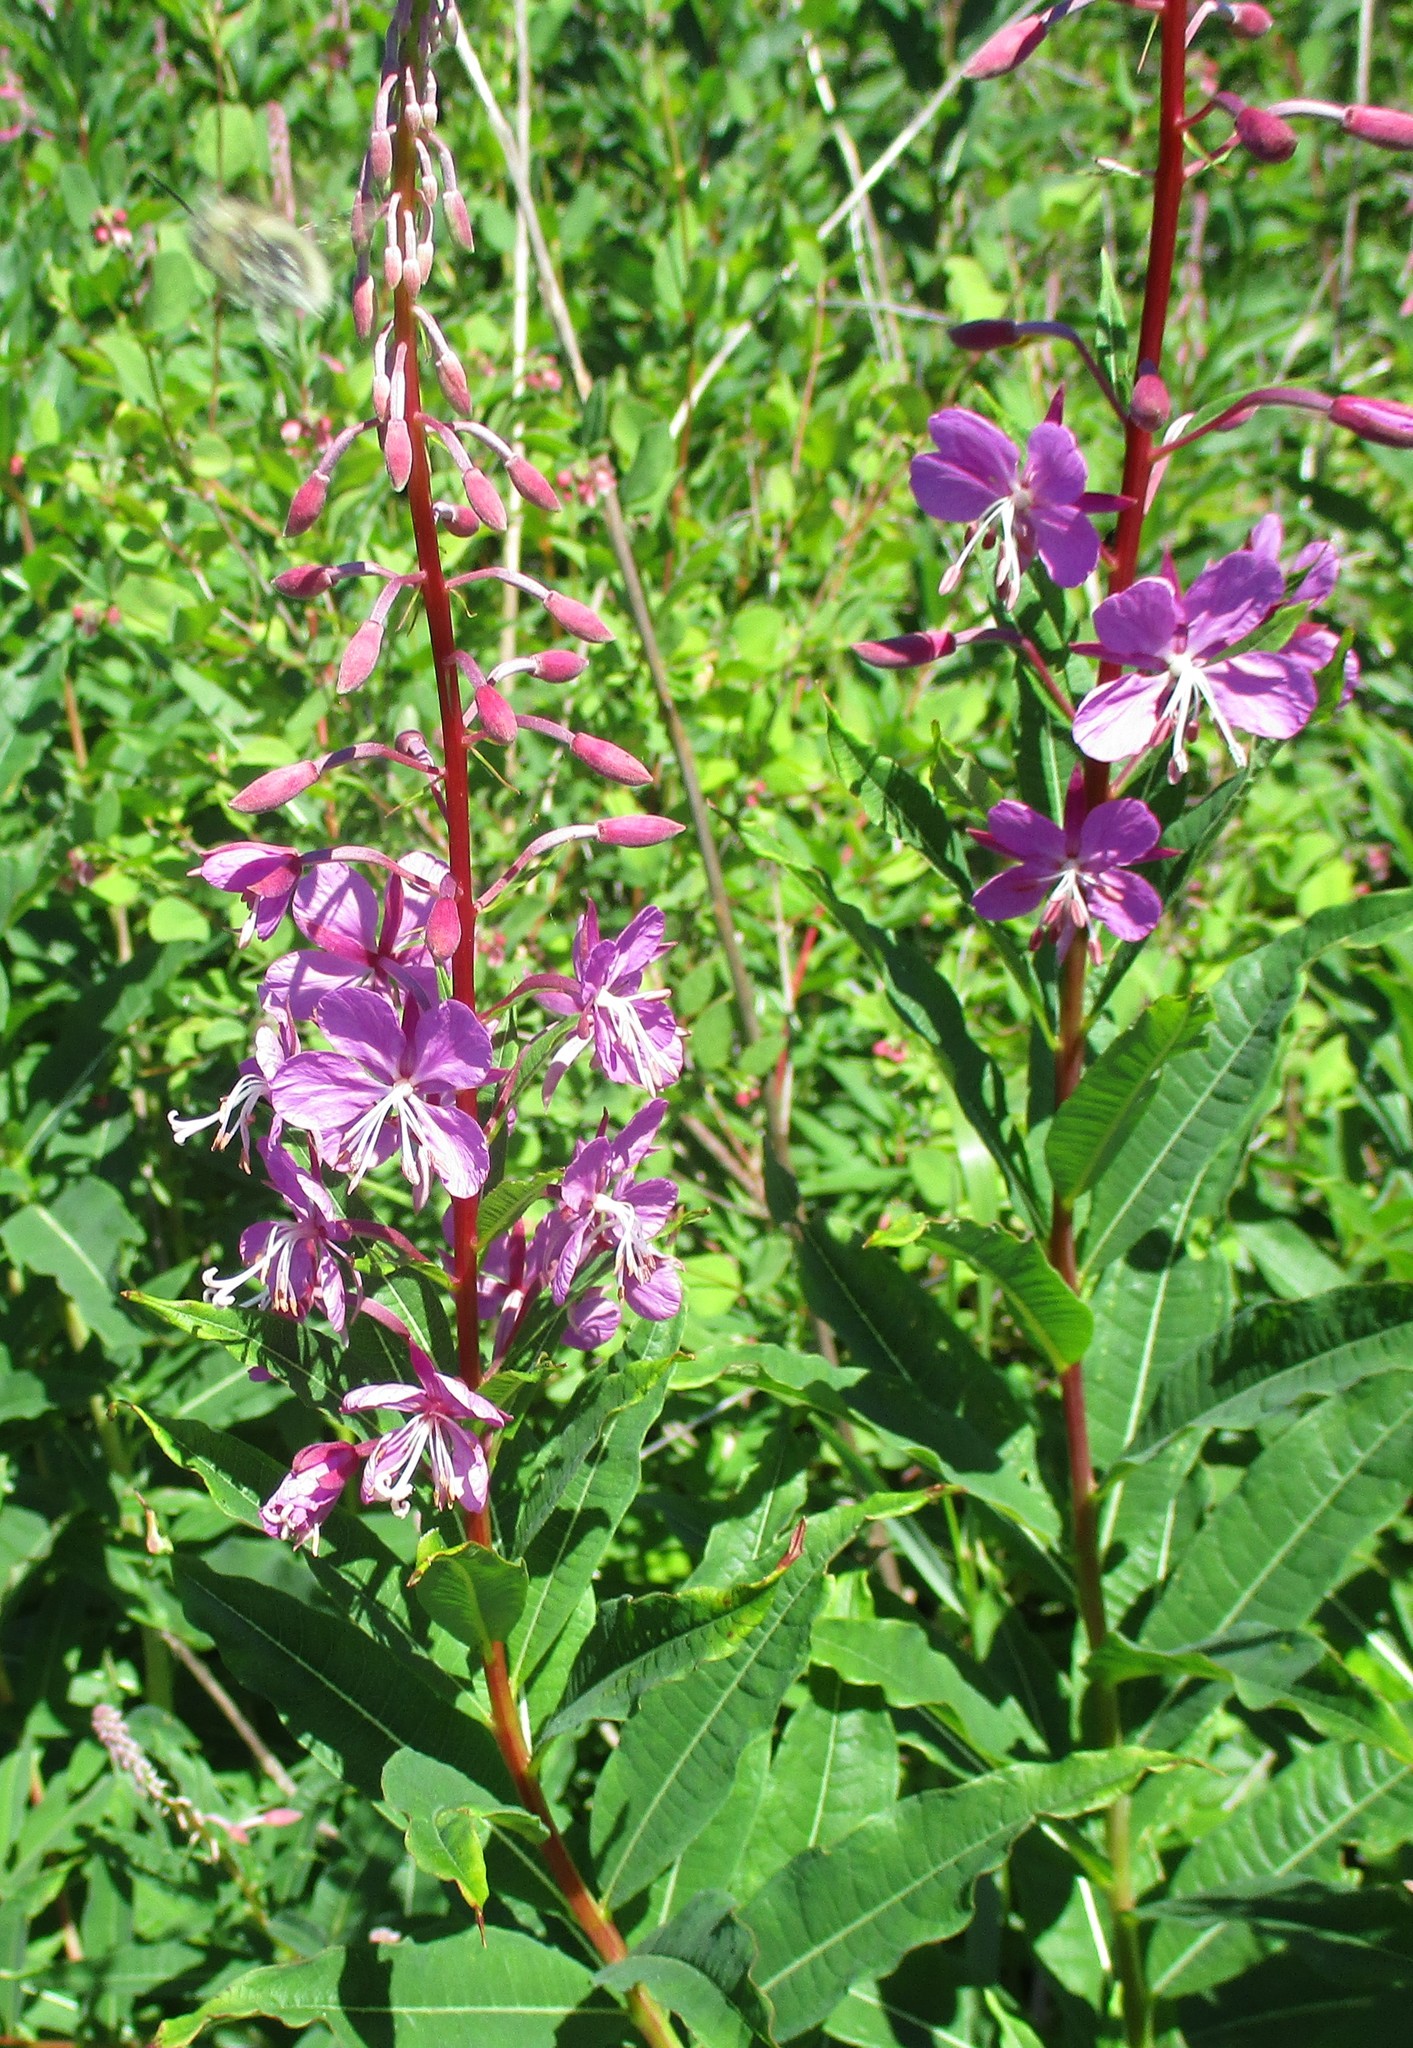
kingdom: Plantae
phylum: Tracheophyta
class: Magnoliopsida
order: Myrtales
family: Onagraceae
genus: Chamaenerion
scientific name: Chamaenerion angustifolium
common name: Fireweed
